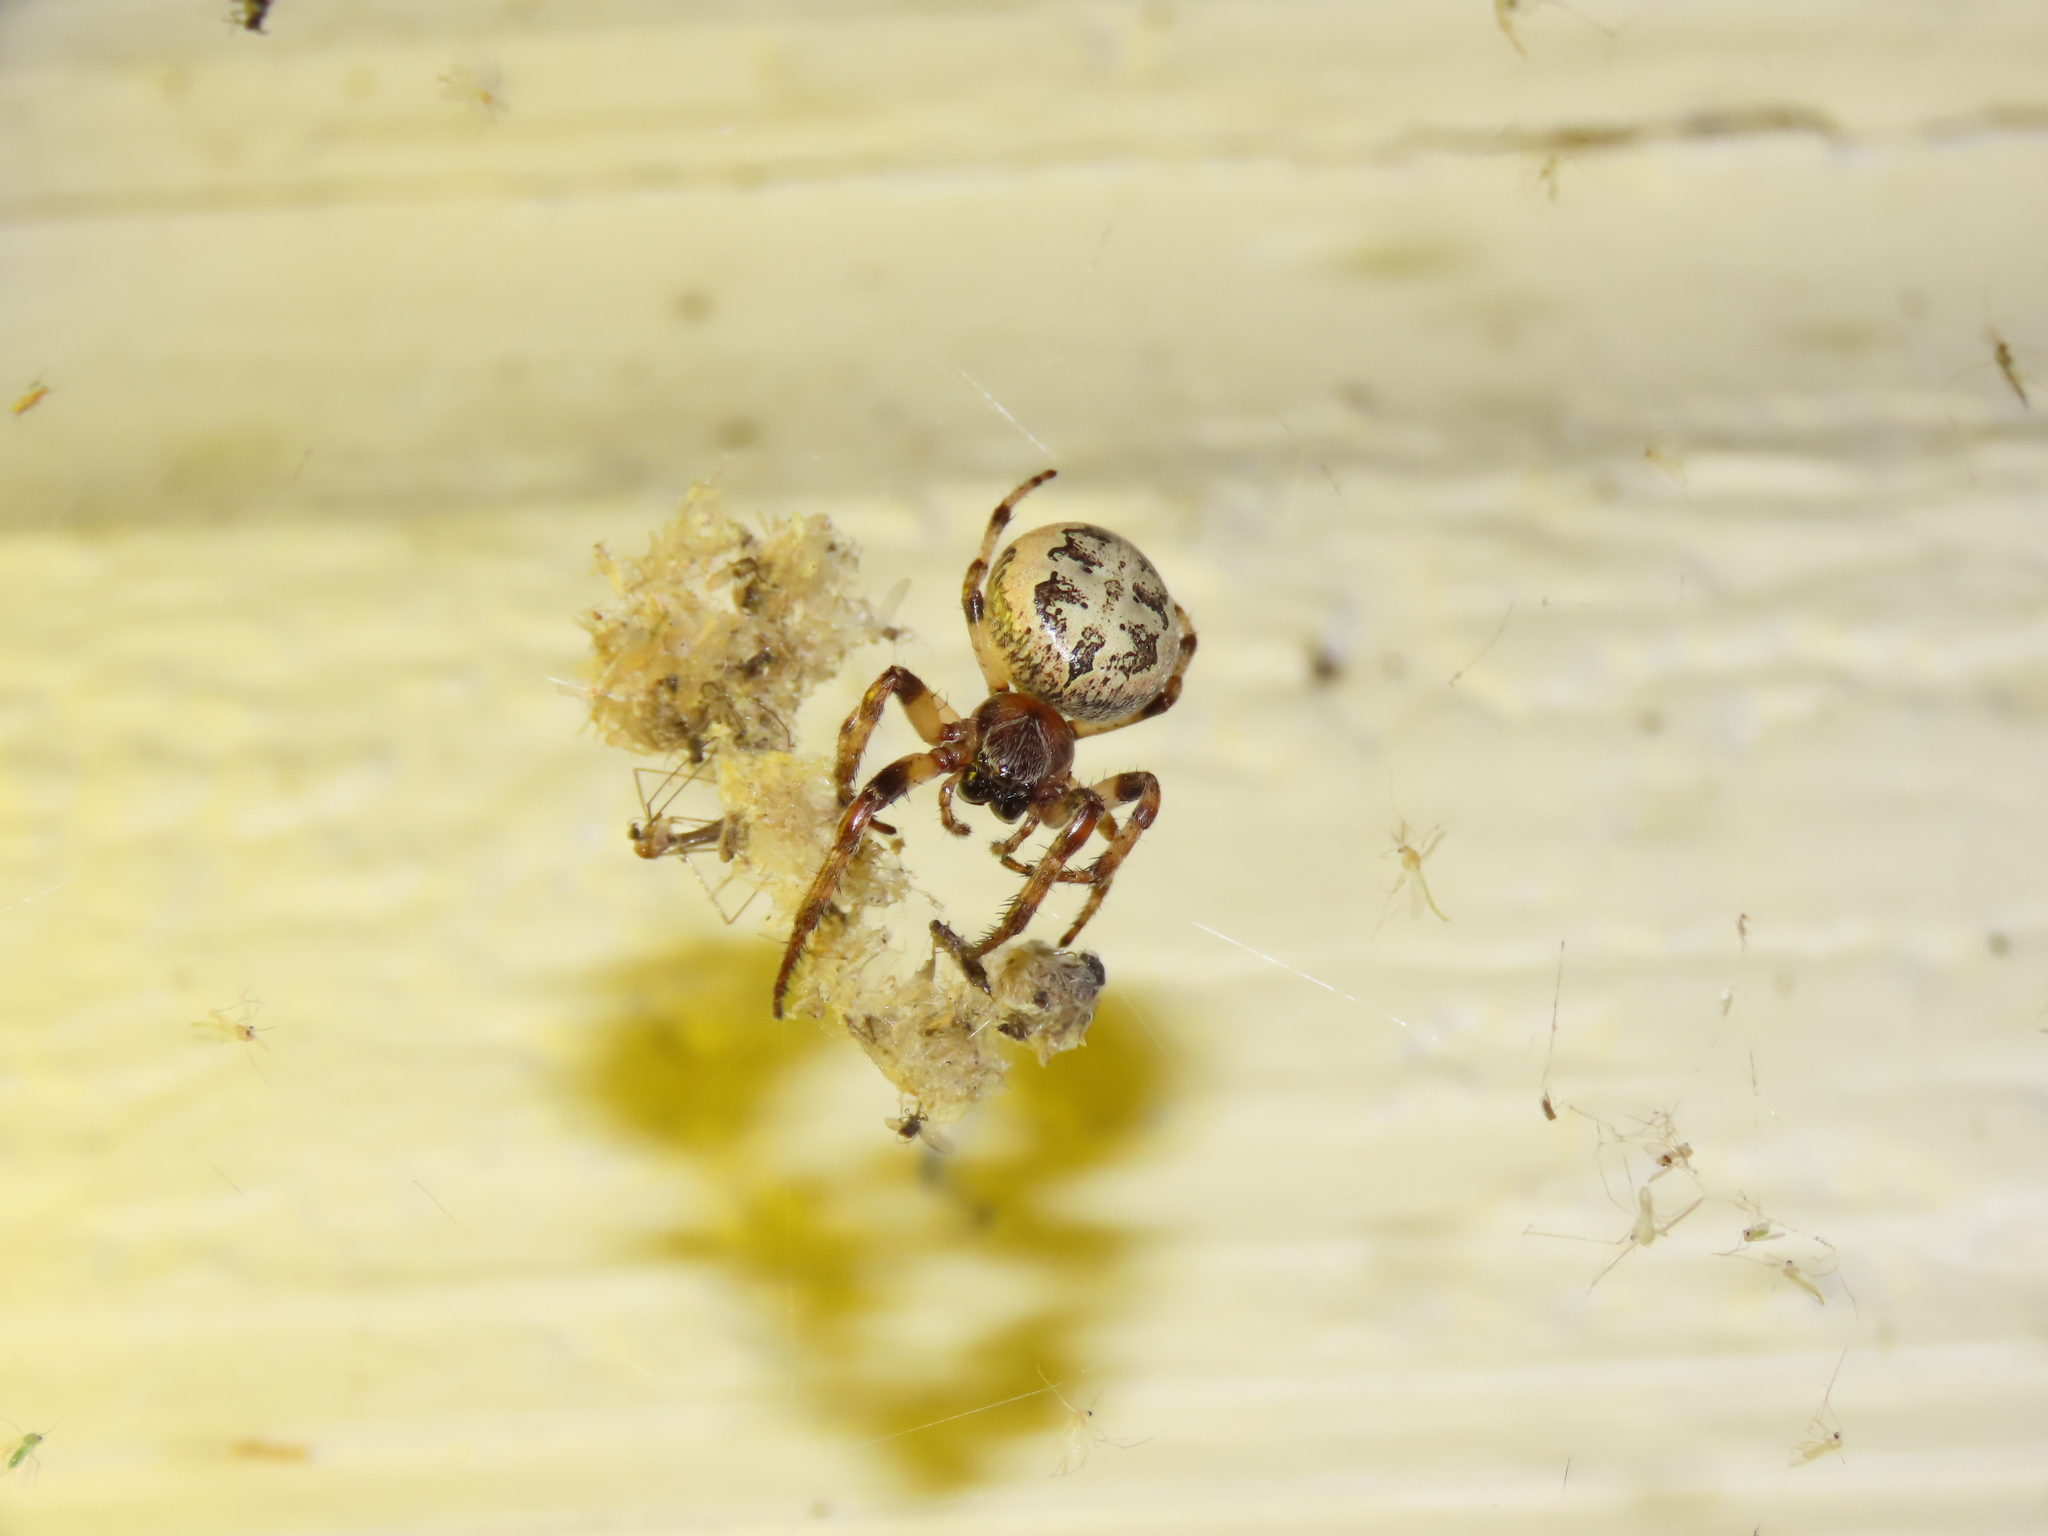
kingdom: Animalia
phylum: Arthropoda
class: Arachnida
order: Araneae
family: Araneidae
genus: Larinioides
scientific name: Larinioides cornutus
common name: Furrow orbweaver
